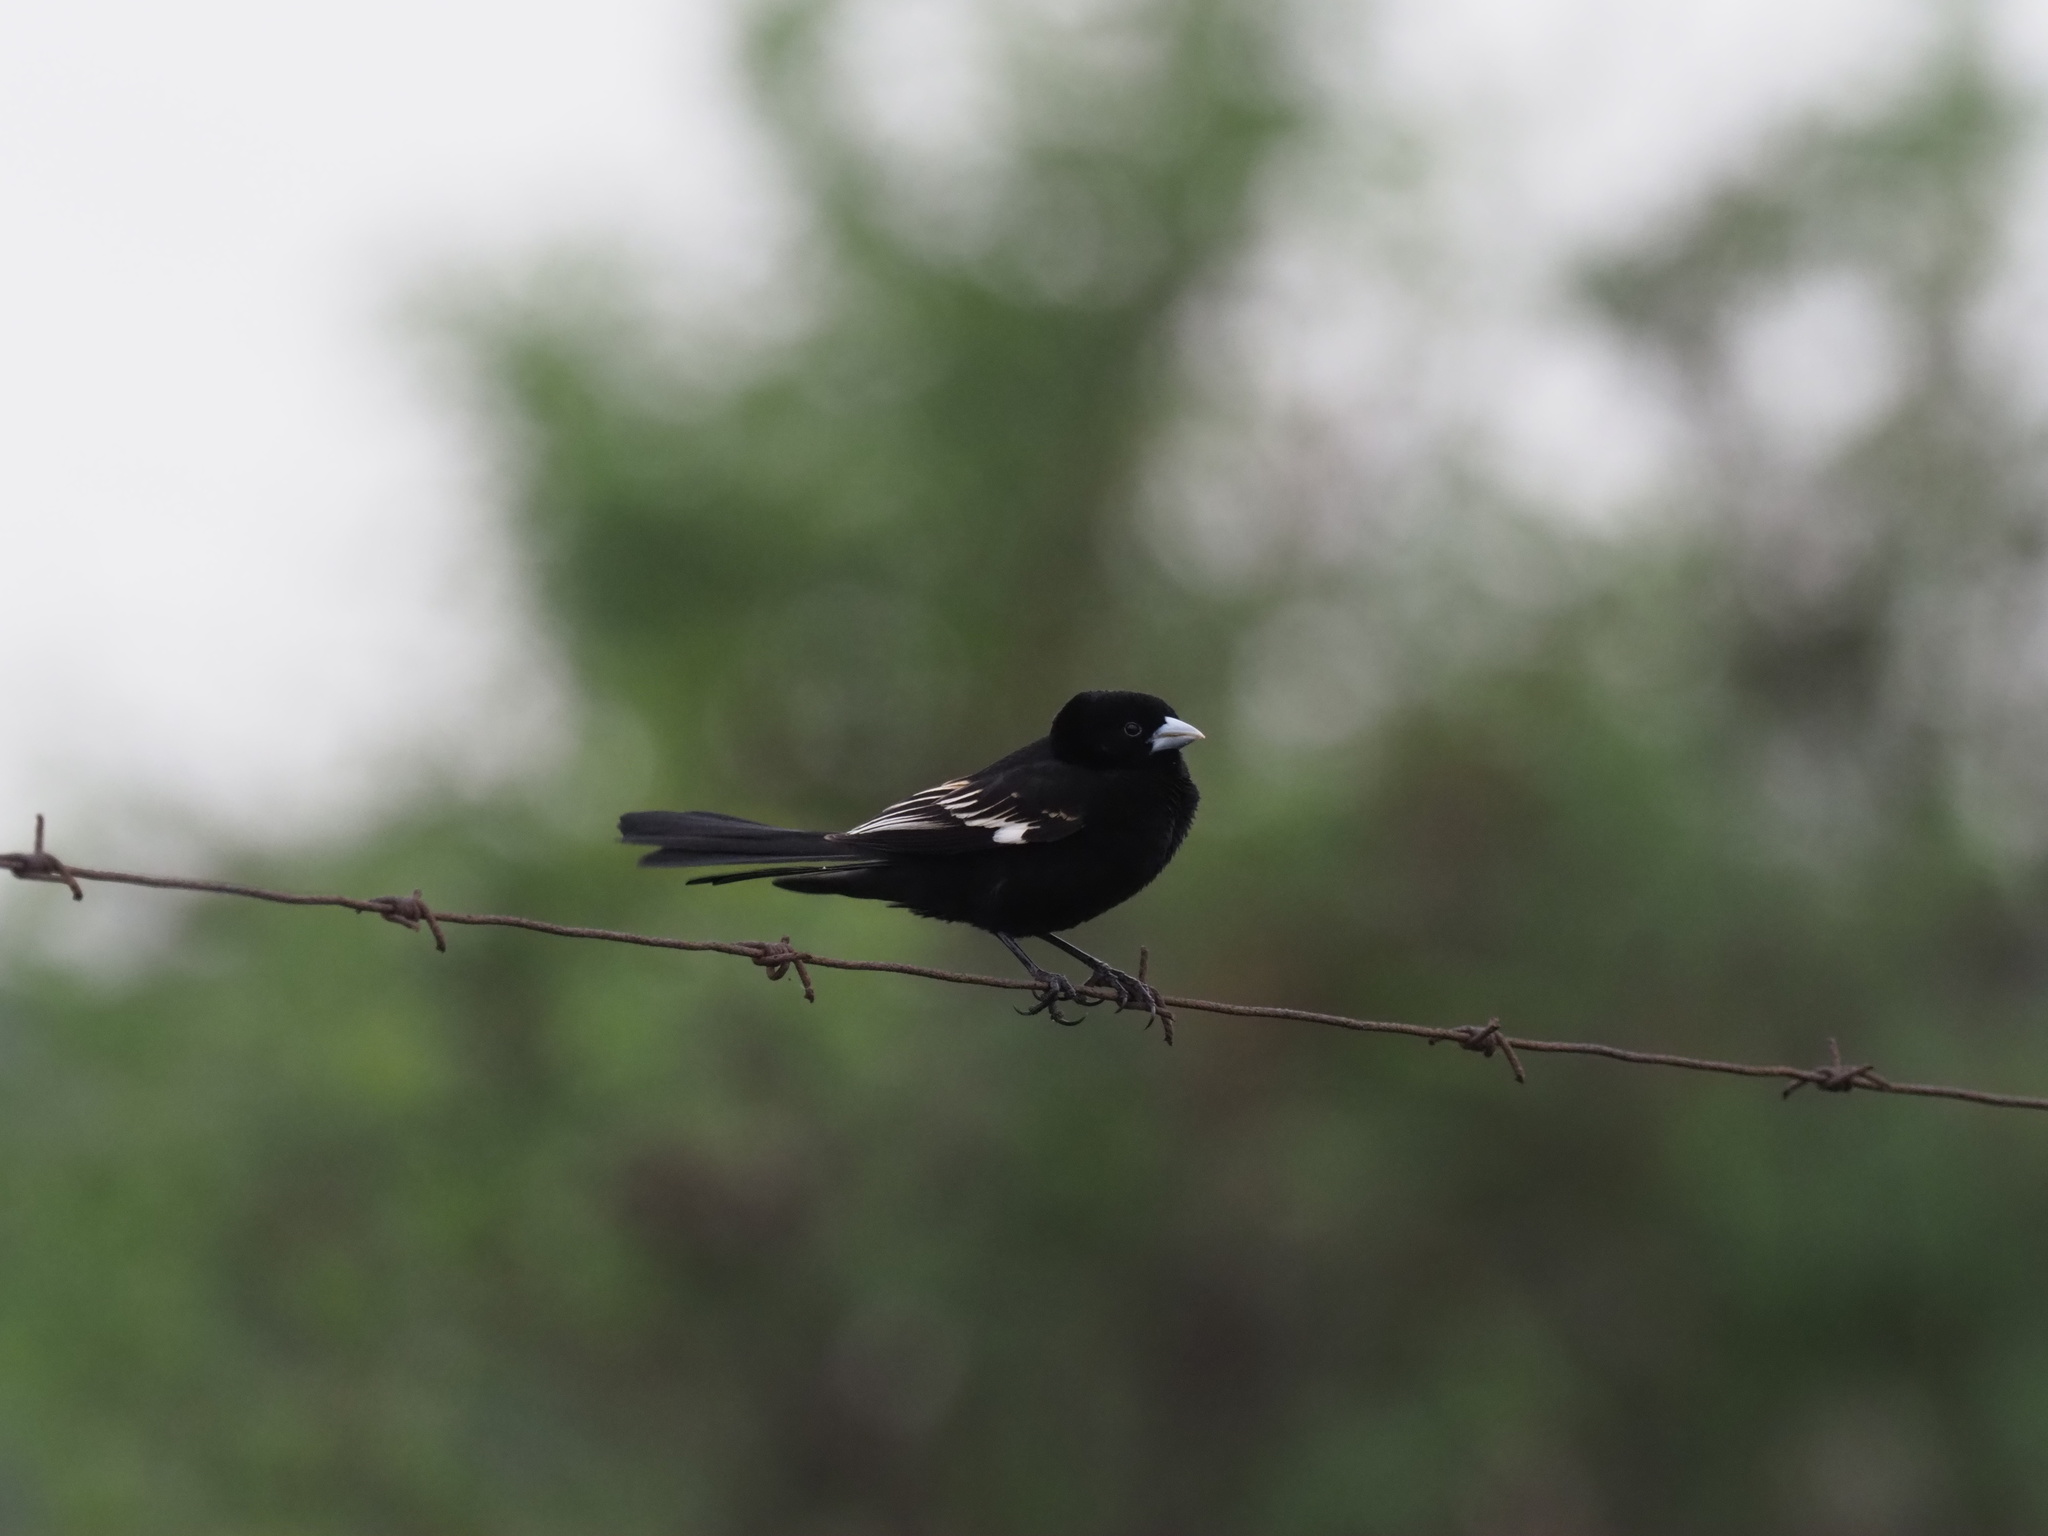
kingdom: Animalia
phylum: Chordata
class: Aves
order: Passeriformes
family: Ploceidae
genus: Euplectes
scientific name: Euplectes albonotatus
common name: White-winged widowbird
